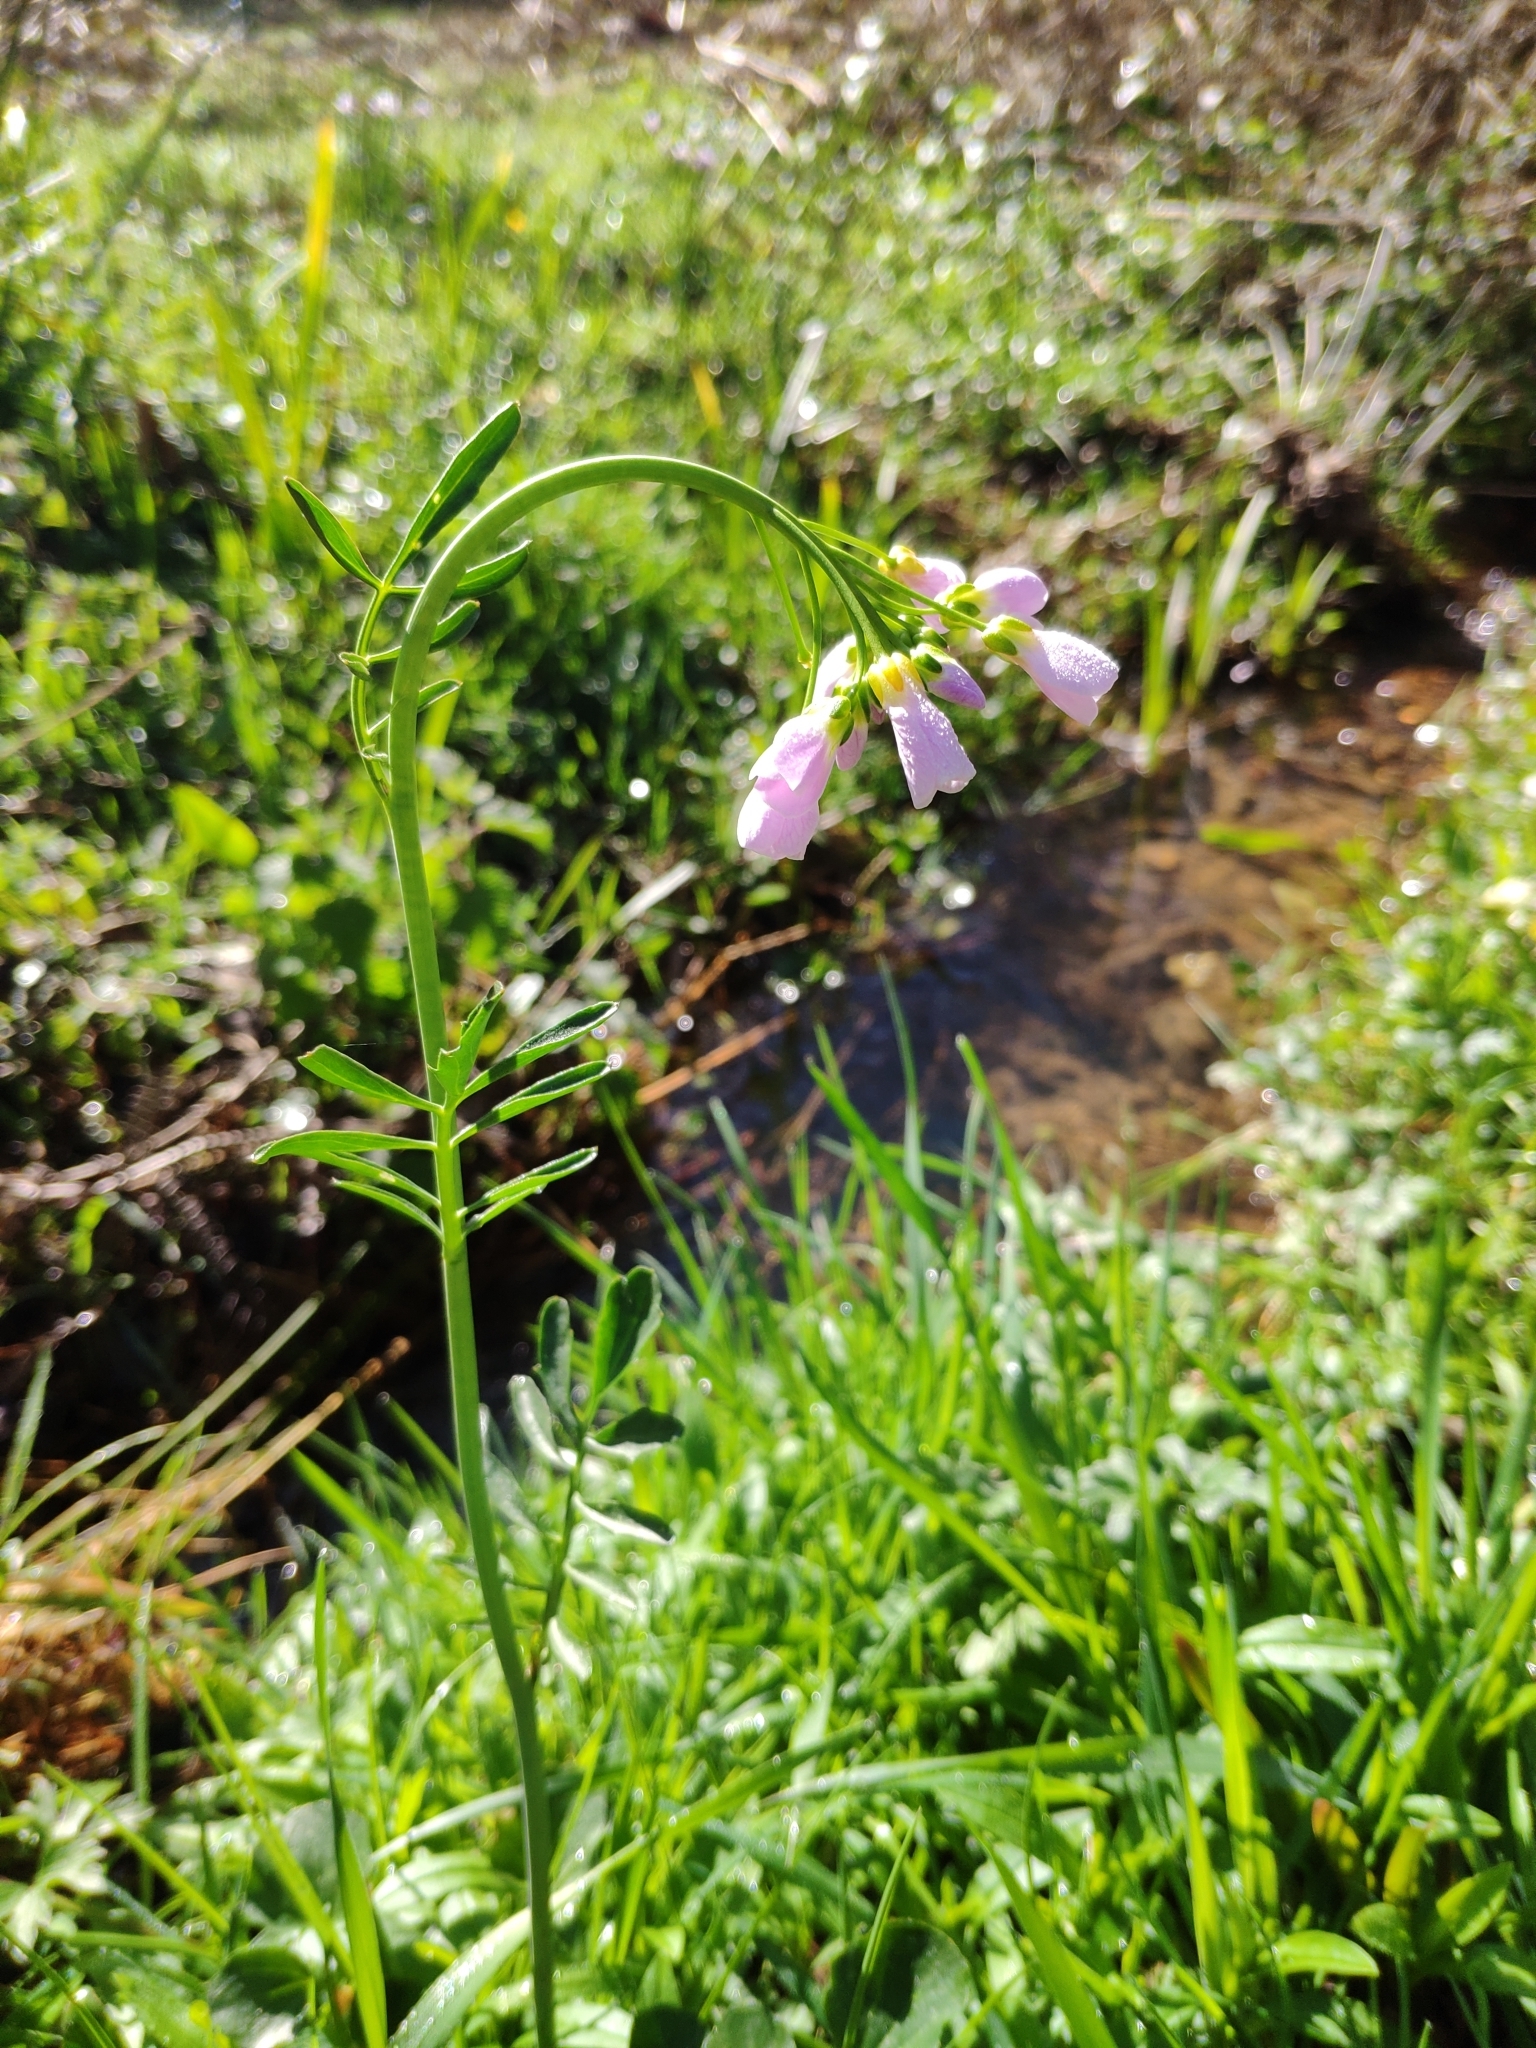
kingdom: Plantae
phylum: Tracheophyta
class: Magnoliopsida
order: Brassicales
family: Brassicaceae
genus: Cardamine
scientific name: Cardamine pratensis
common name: Cuckoo flower
